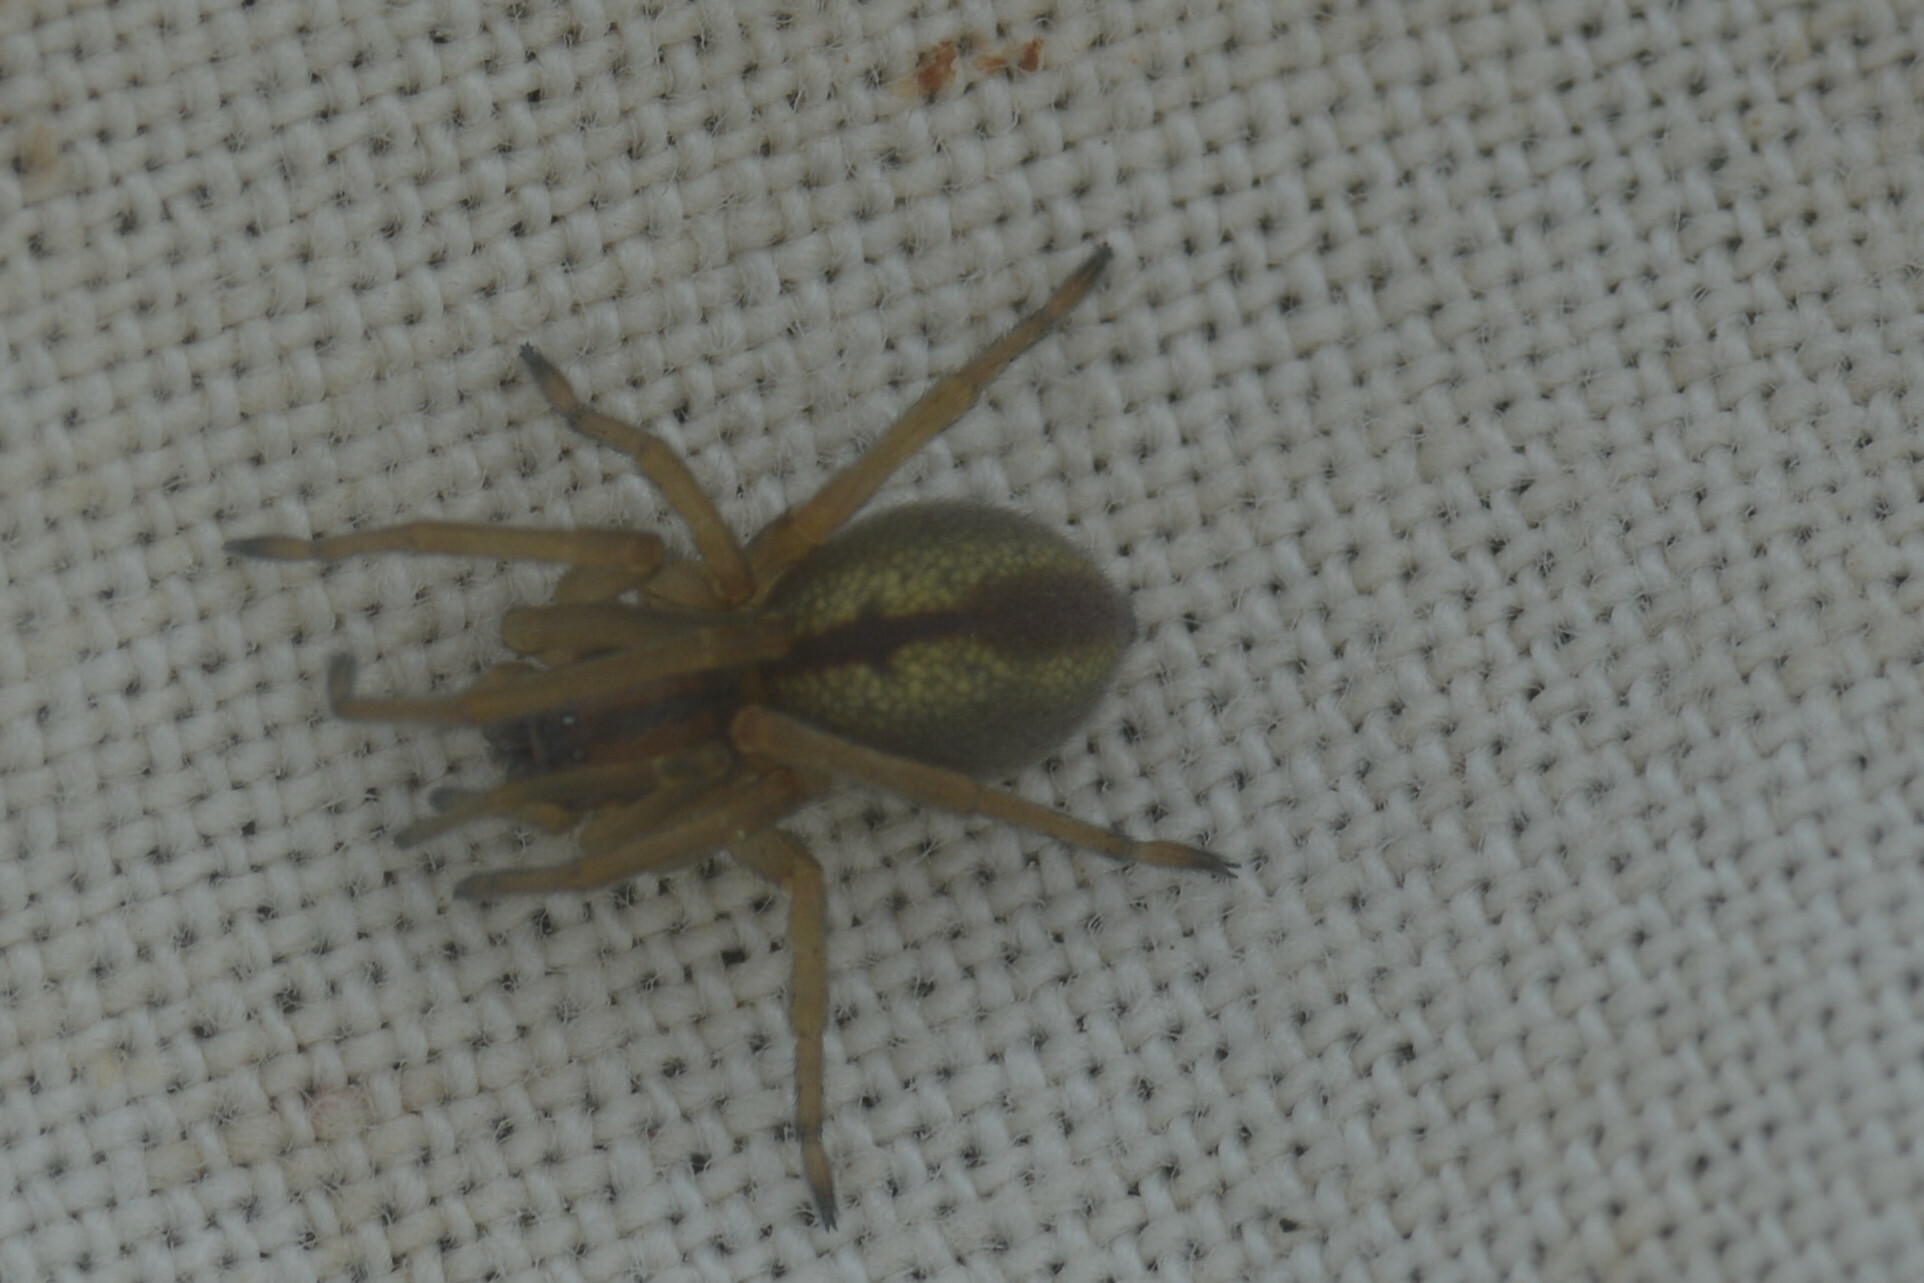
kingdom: Animalia
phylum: Arthropoda
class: Arachnida
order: Araneae
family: Cheiracanthiidae
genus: Cheiracanthium
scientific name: Cheiracanthium erraticum
